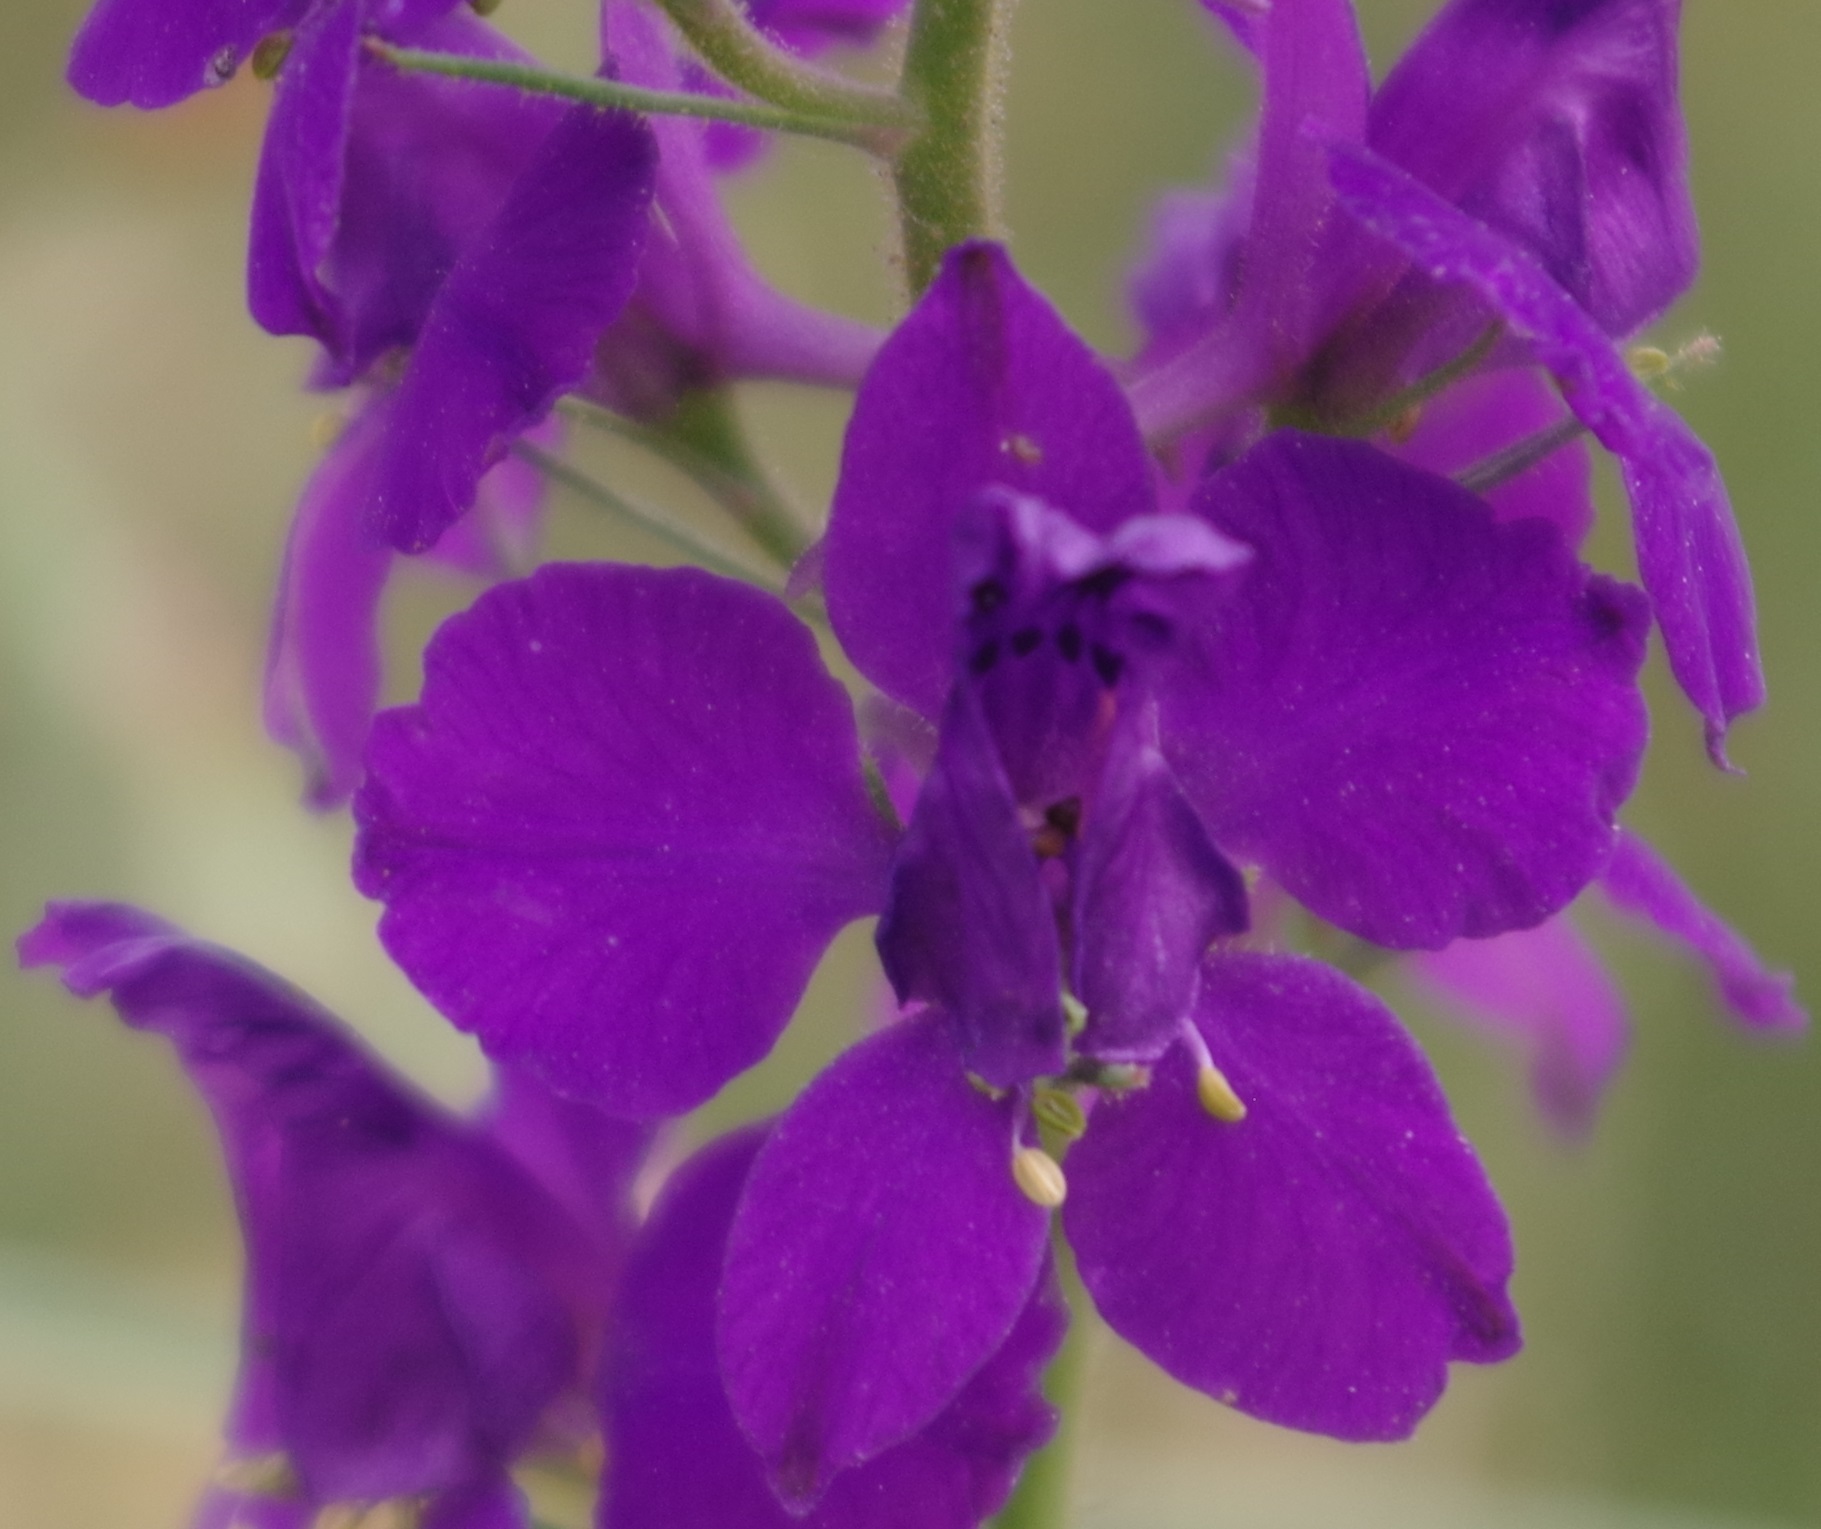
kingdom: Plantae
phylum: Tracheophyta
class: Magnoliopsida
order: Ranunculales
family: Ranunculaceae
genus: Delphinium
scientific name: Delphinium ajacis
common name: Doubtful knight's-spur
